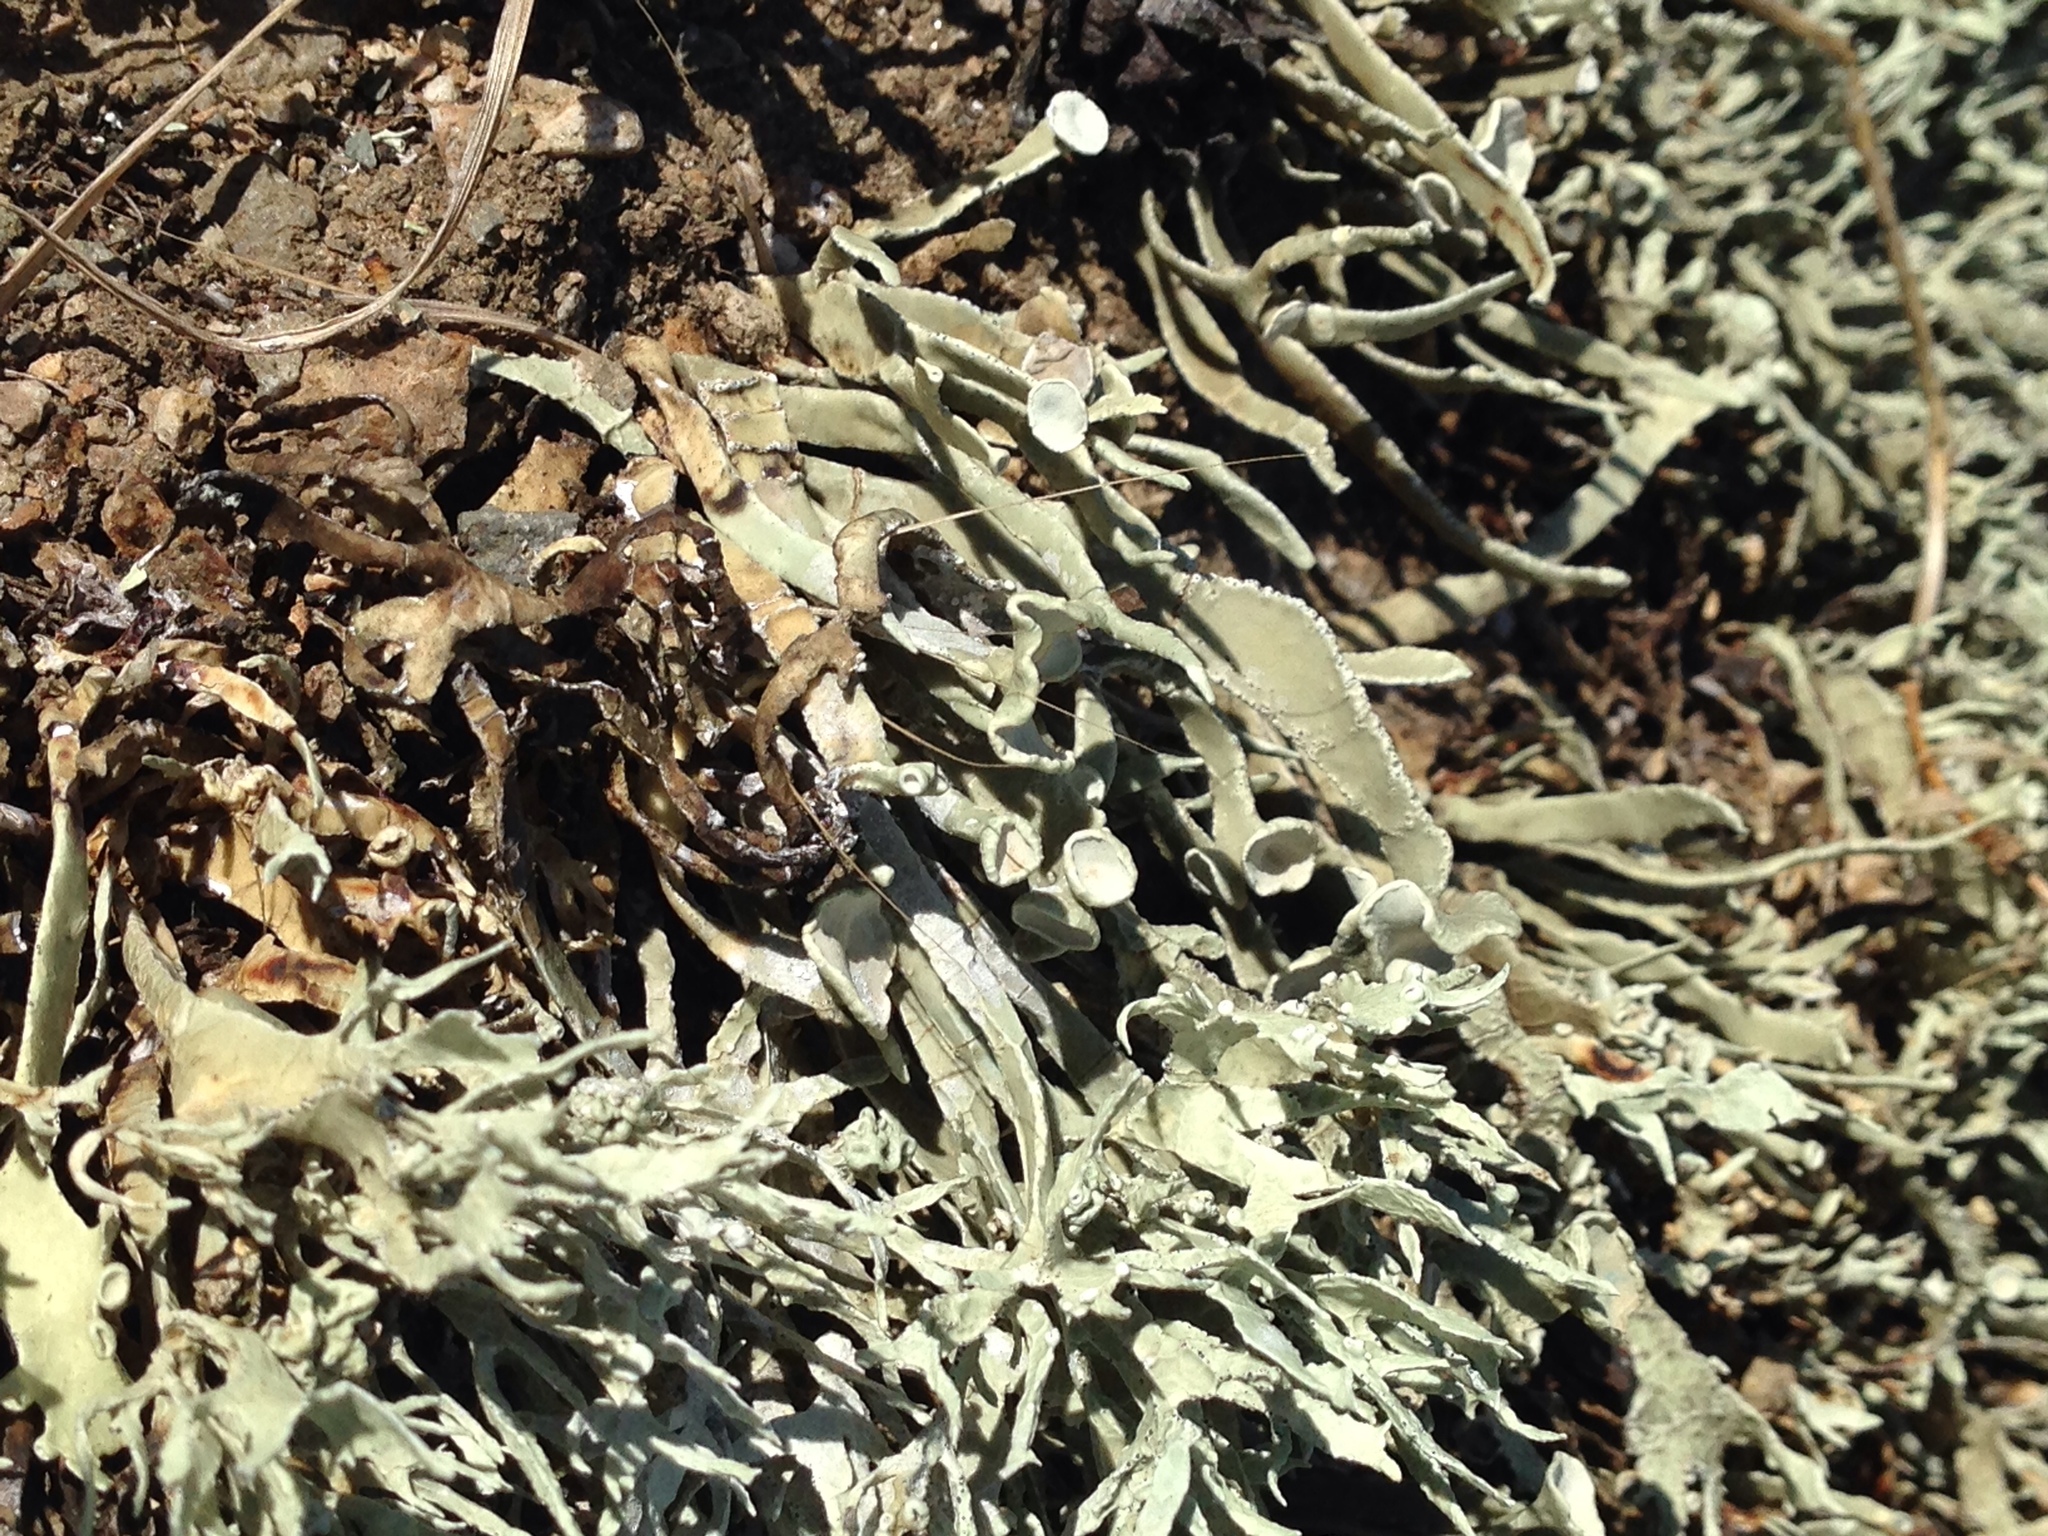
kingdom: Fungi
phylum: Ascomycota
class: Lecanoromycetes
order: Lecanorales
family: Ramalinaceae
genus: Niebla
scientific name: Niebla laevigata
